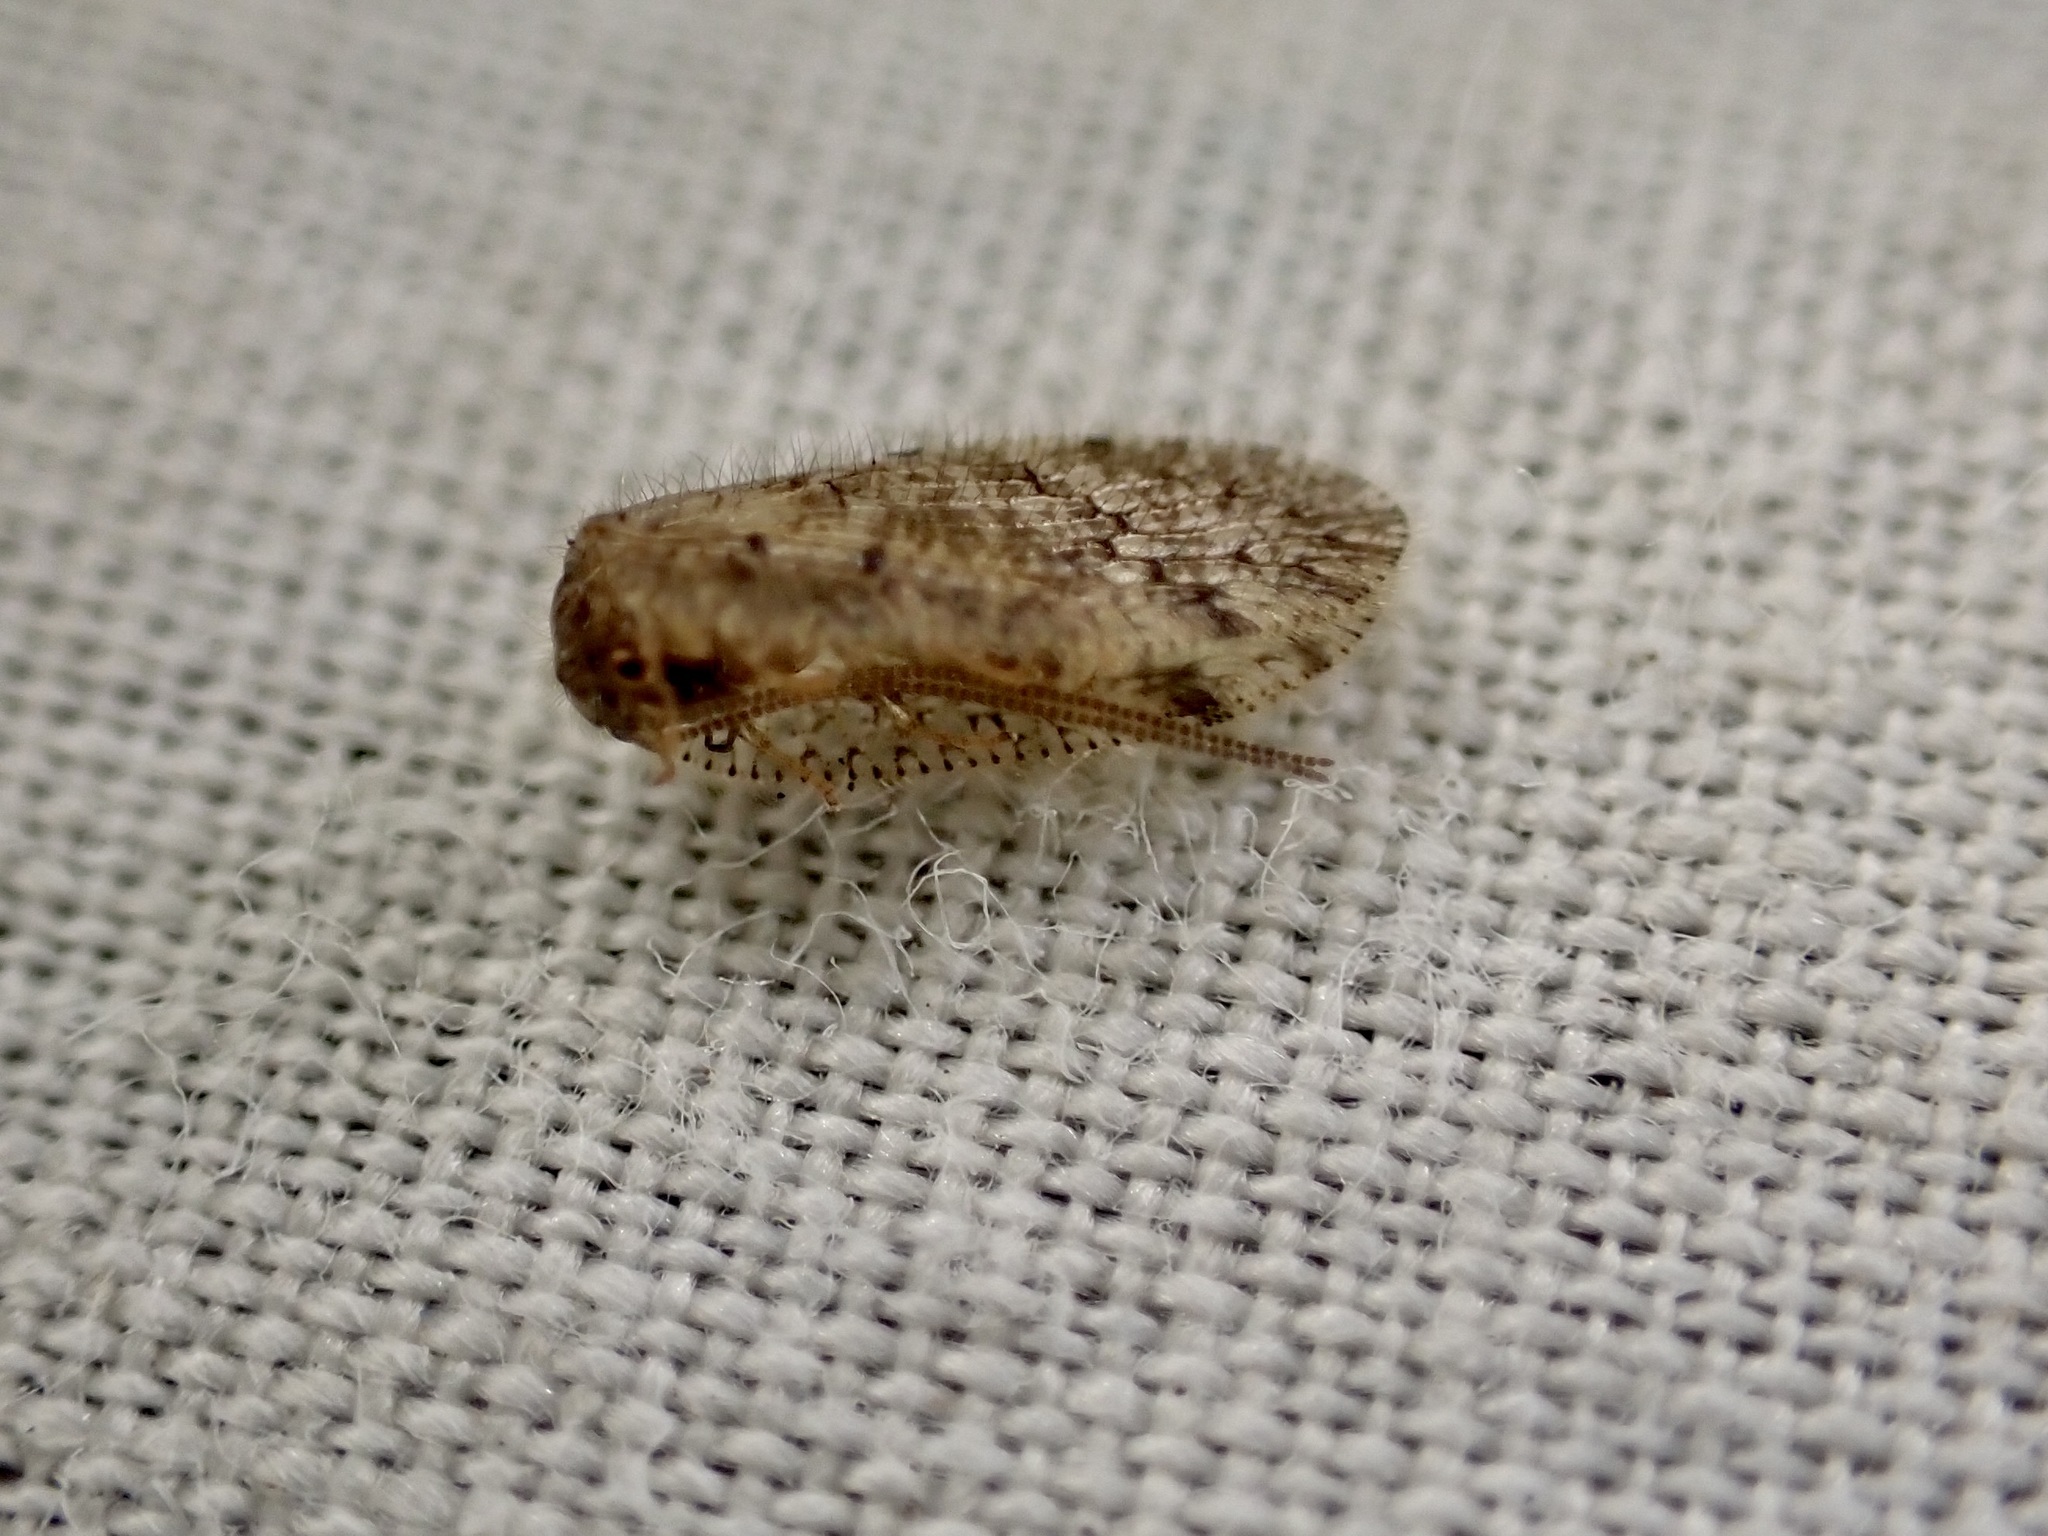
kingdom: Animalia
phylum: Arthropoda
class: Insecta
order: Neuroptera
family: Hemerobiidae
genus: Psectra
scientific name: Psectra nakaharai
